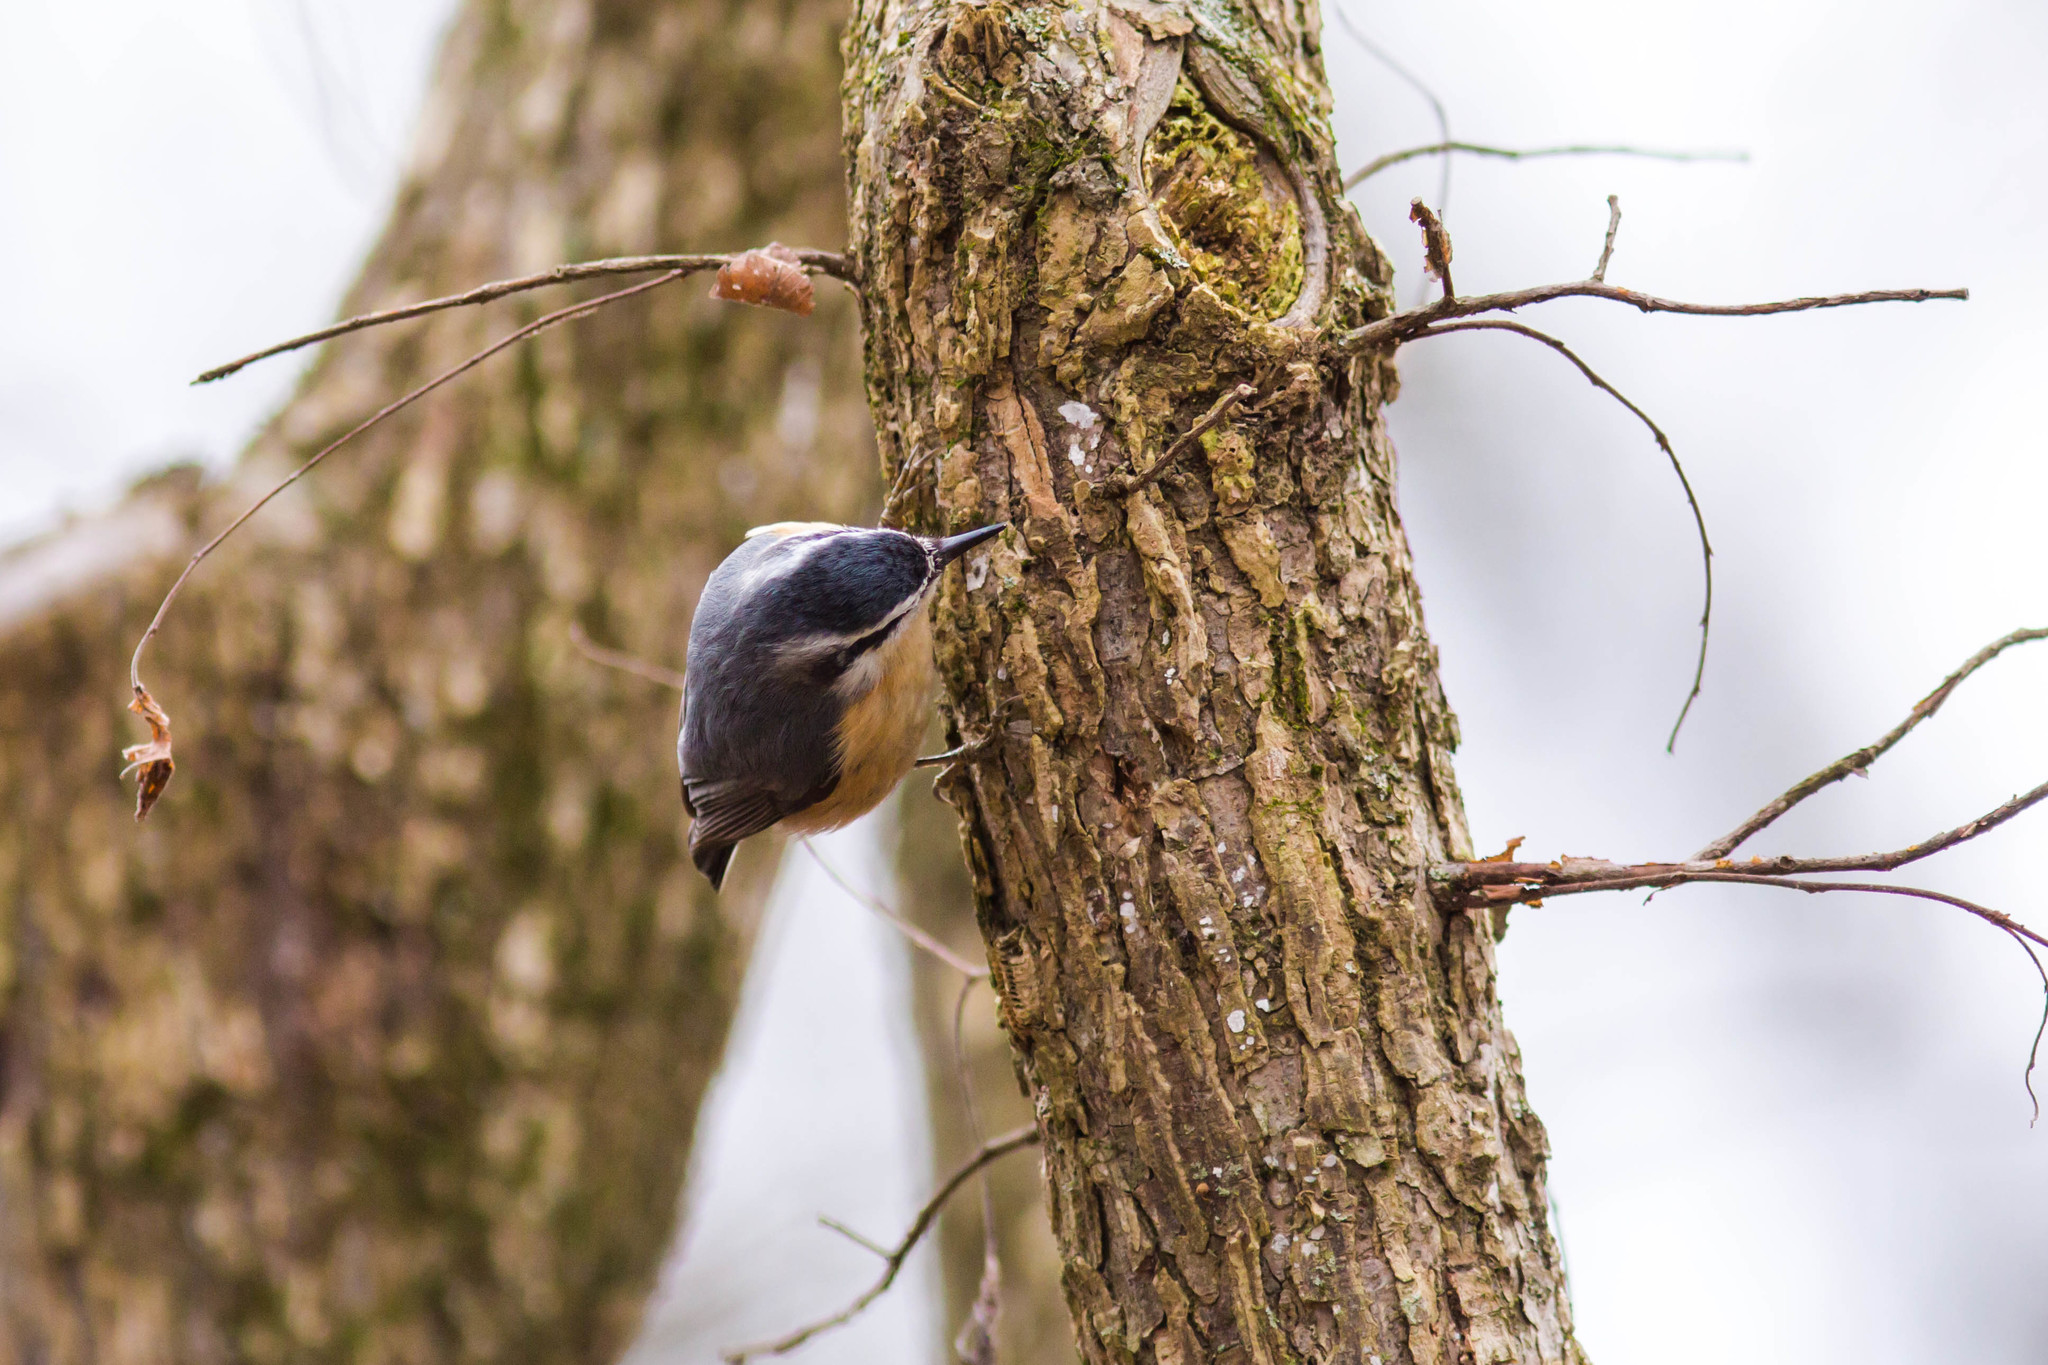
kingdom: Animalia
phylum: Chordata
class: Aves
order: Passeriformes
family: Sittidae
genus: Sitta
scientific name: Sitta canadensis
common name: Red-breasted nuthatch
